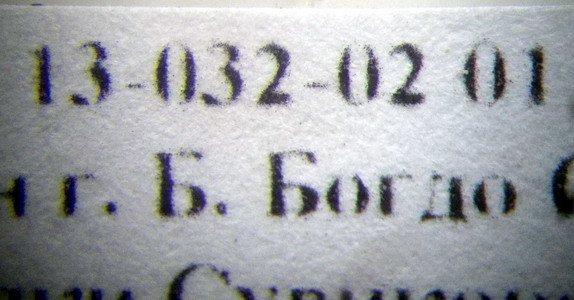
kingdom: Animalia
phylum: Arthropoda
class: Insecta
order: Hymenoptera
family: Formicidae
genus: Messor
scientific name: Messor structor
